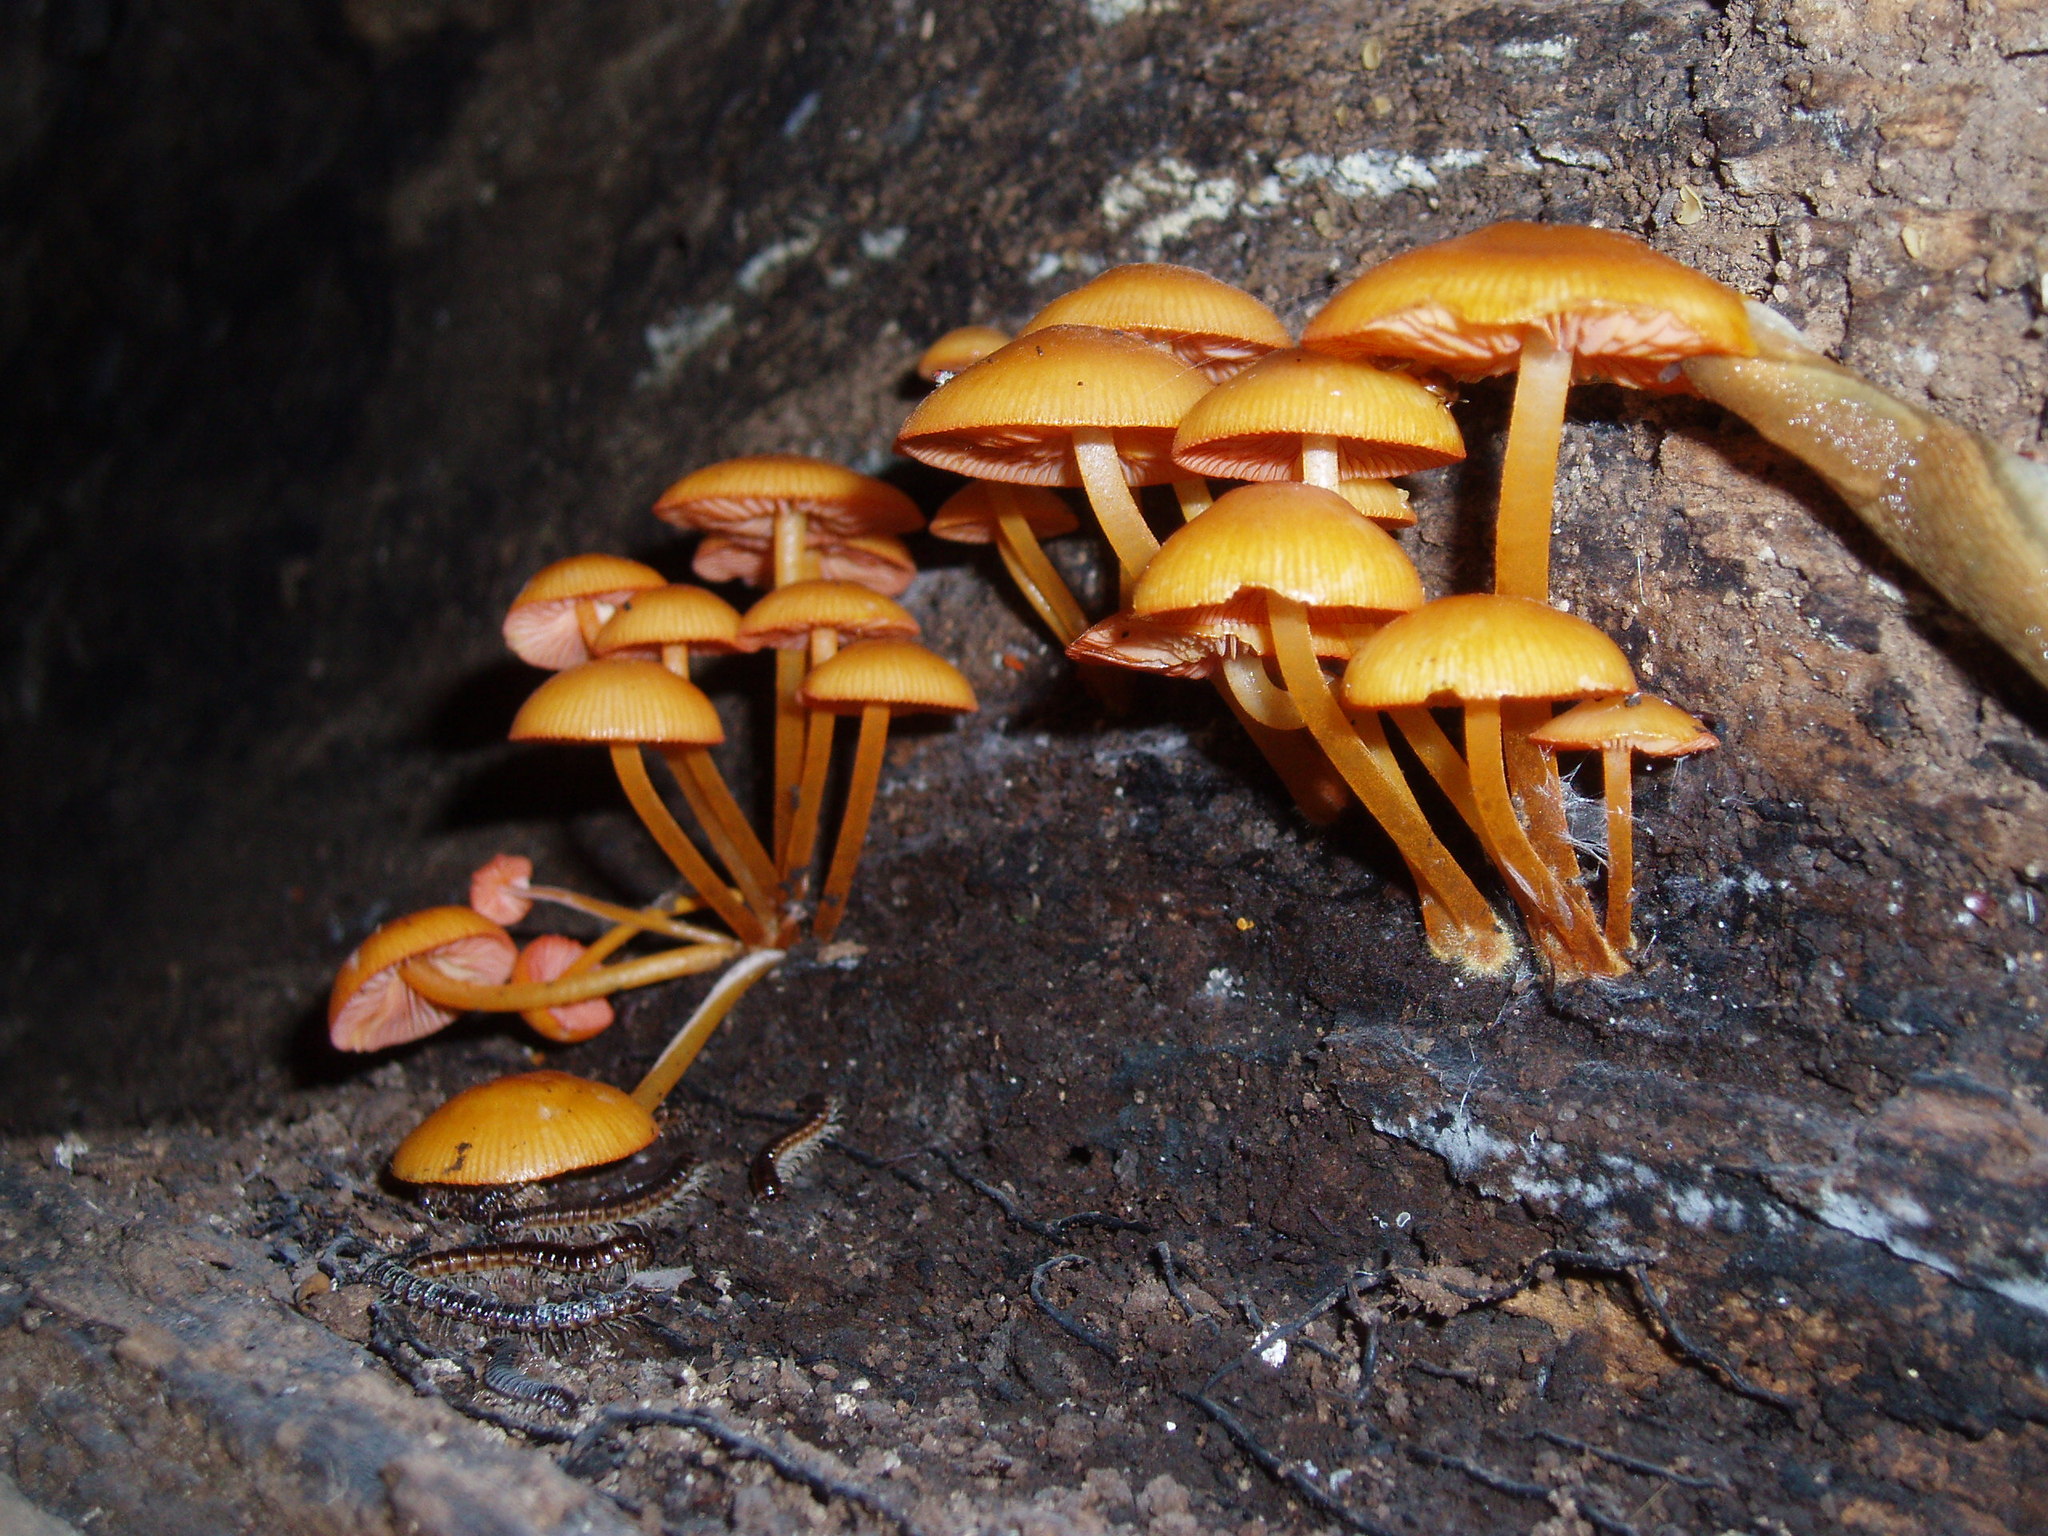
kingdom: Fungi
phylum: Basidiomycota
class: Agaricomycetes
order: Agaricales
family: Mycenaceae
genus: Mycena
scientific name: Mycena leaiana
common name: Orange mycena
